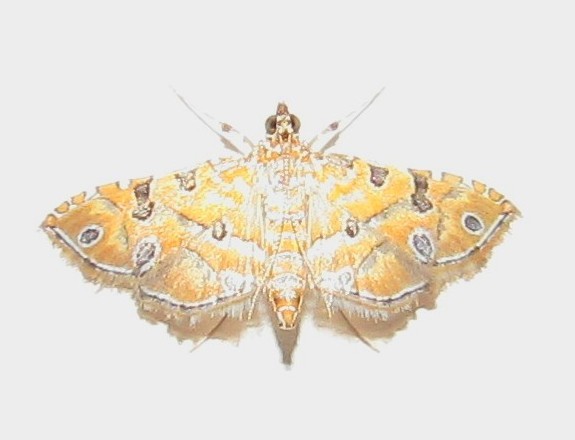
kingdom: Animalia
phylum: Arthropoda
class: Insecta
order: Lepidoptera
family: Crambidae
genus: Ommatospila
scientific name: Ommatospila narcaeusalis
